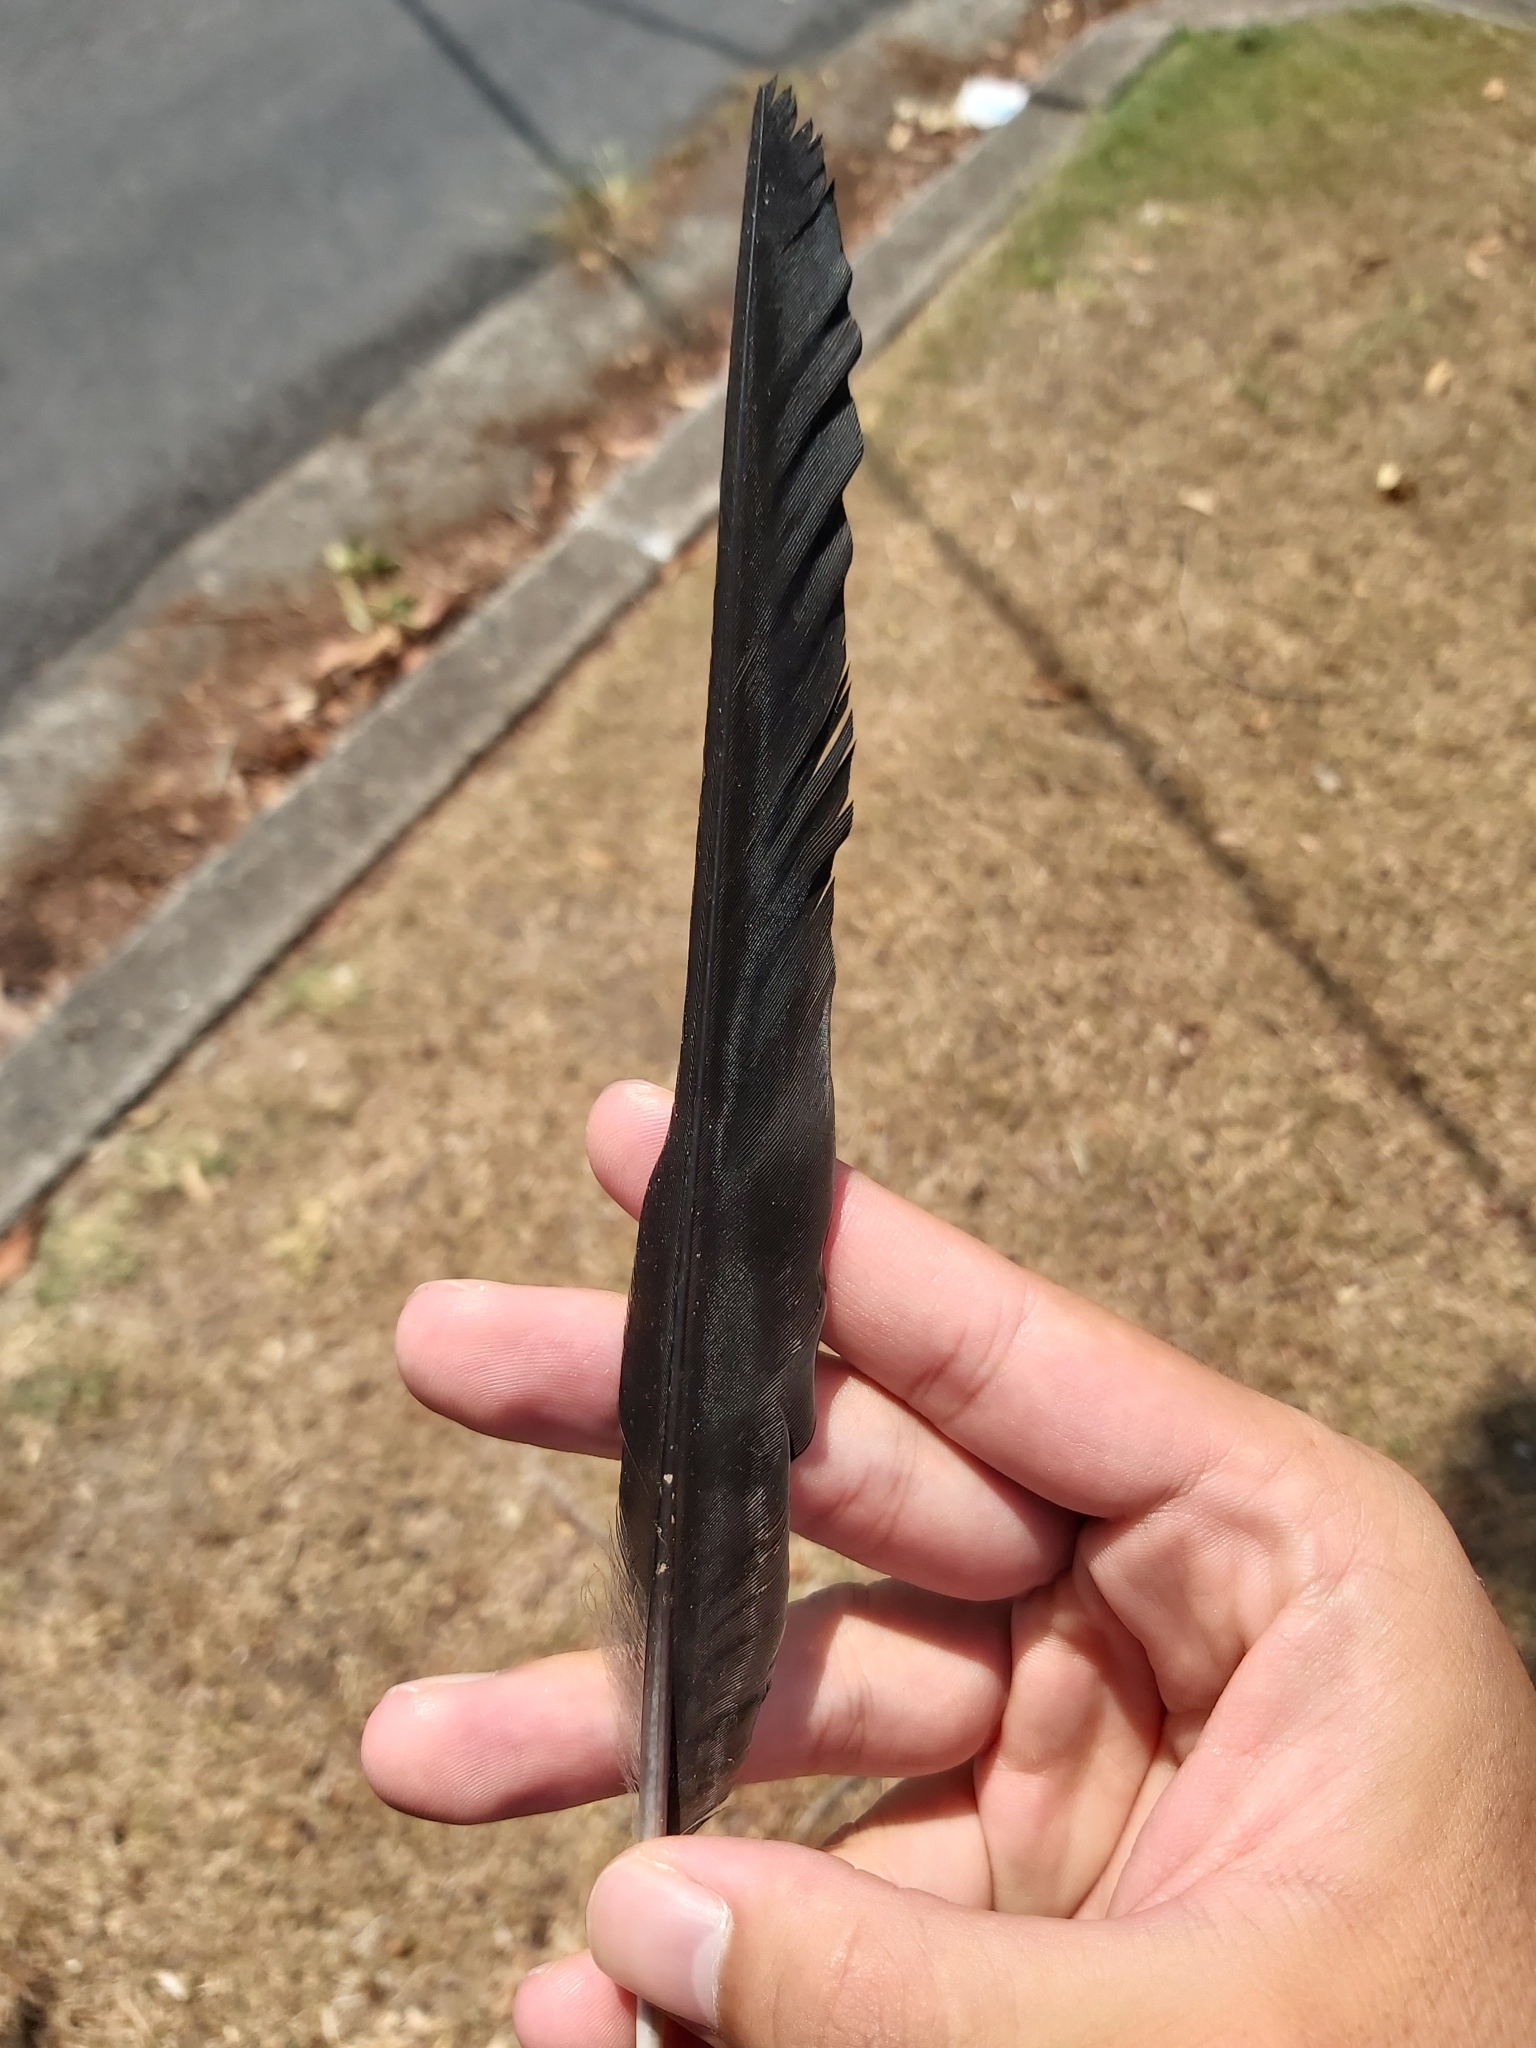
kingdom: Animalia
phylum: Chordata
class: Aves
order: Passeriformes
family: Cracticidae
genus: Gymnorhina
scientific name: Gymnorhina tibicen
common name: Australian magpie
